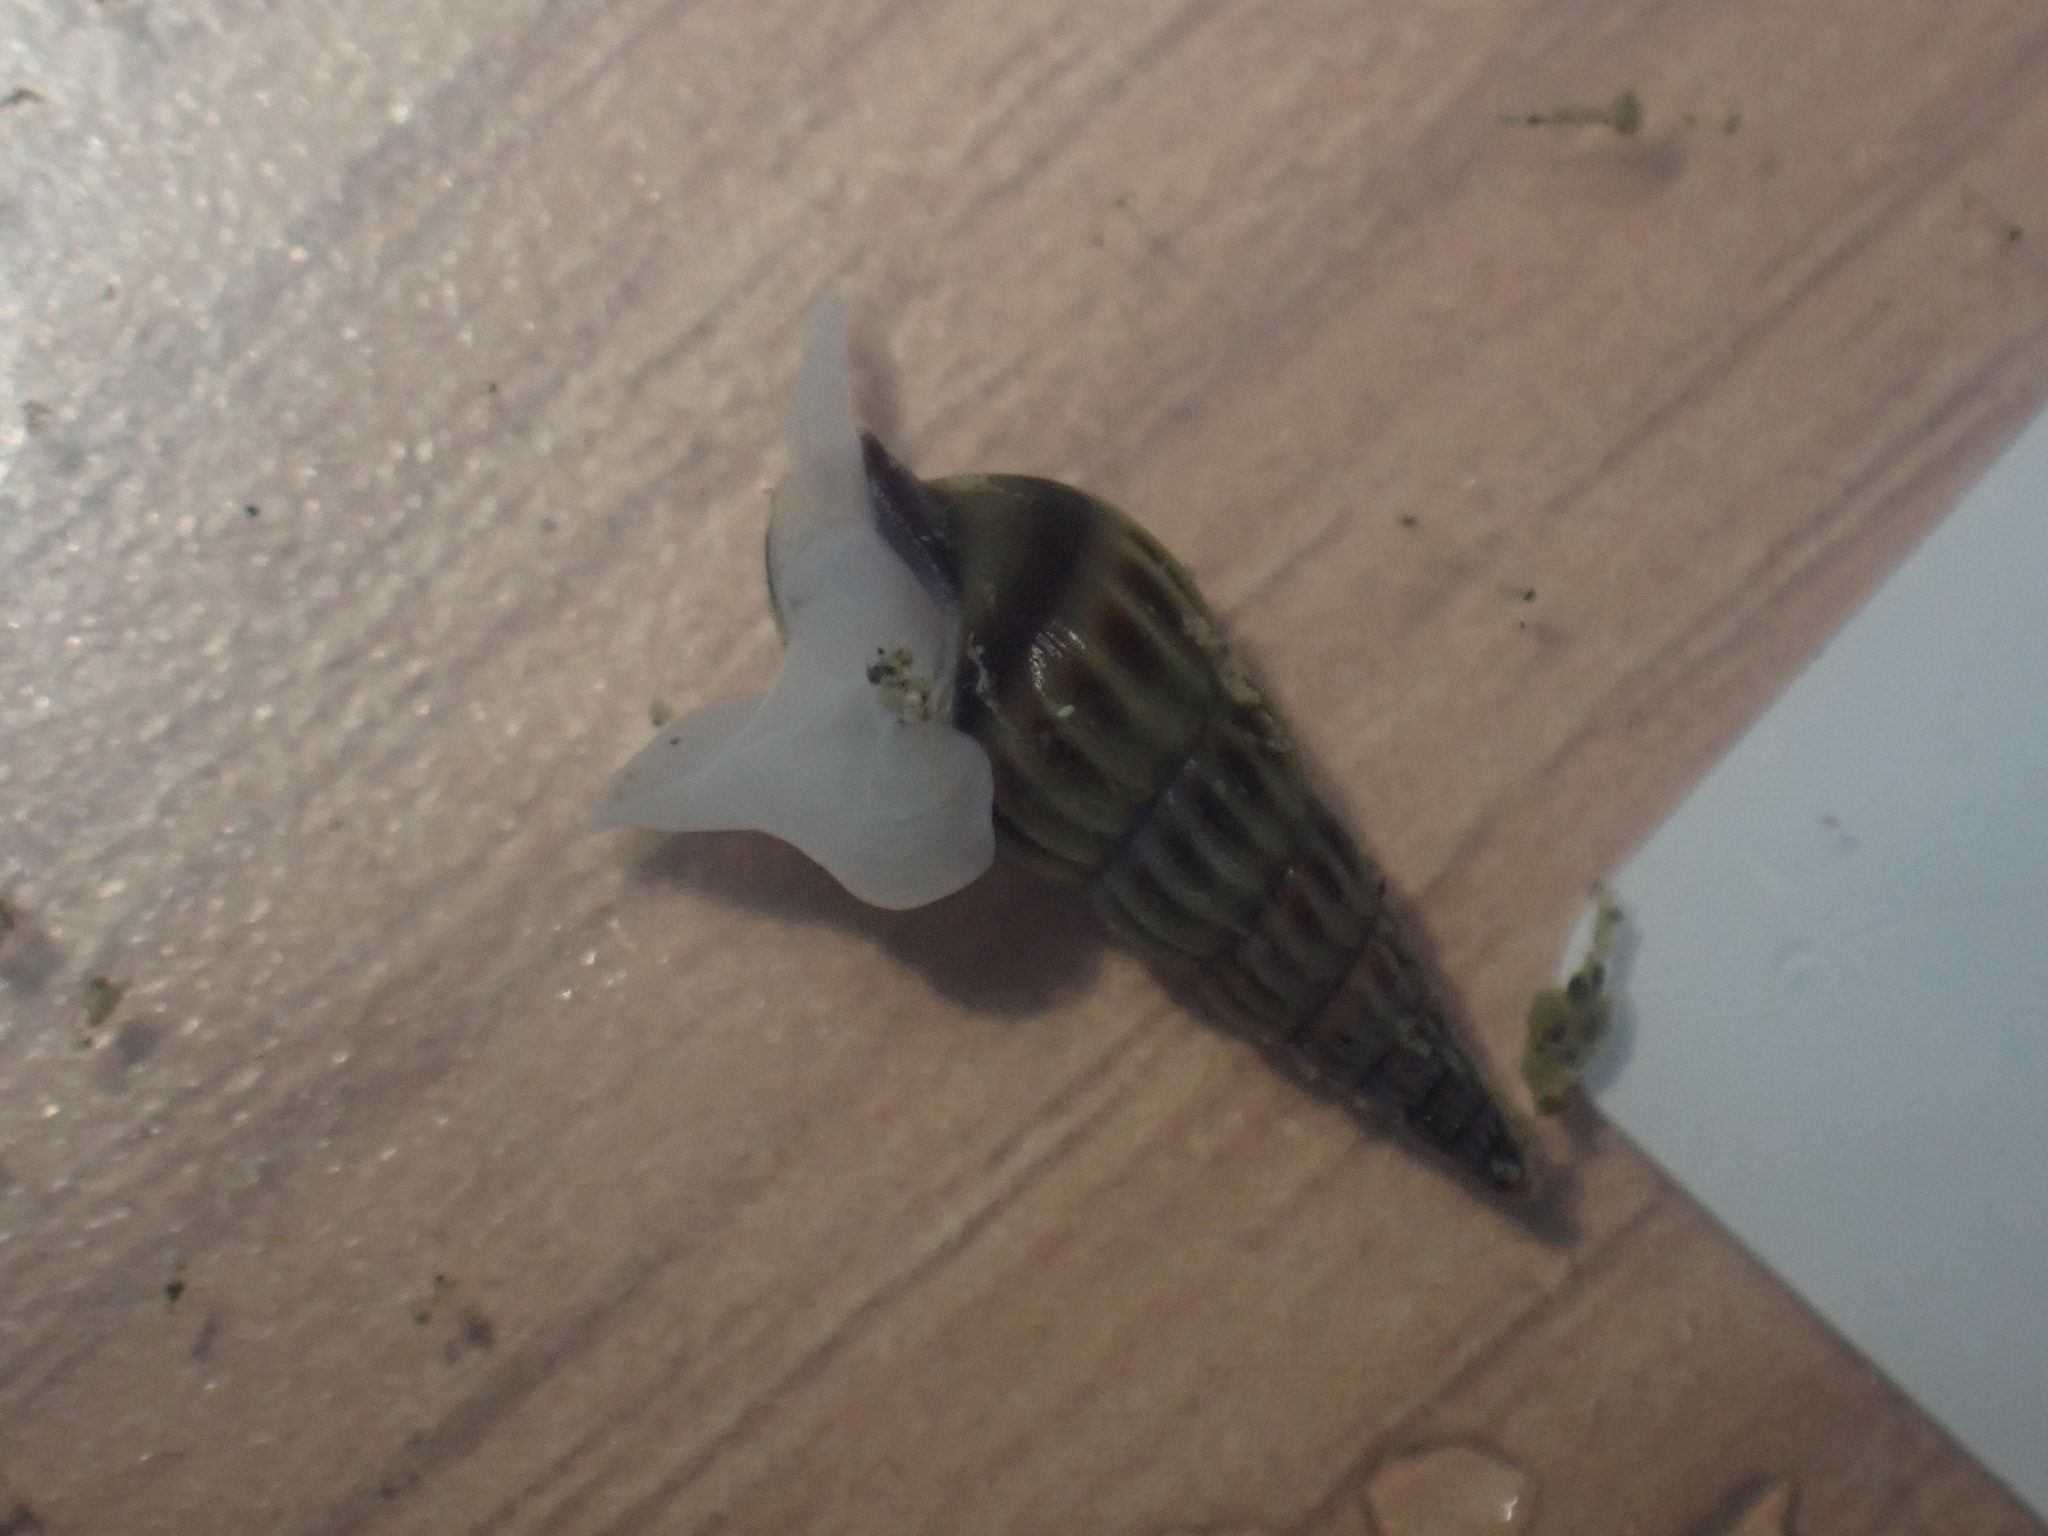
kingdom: Animalia
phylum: Mollusca
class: Gastropoda
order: Neogastropoda
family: Terebridae
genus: Duplicaria
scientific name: Duplicaria tristis
